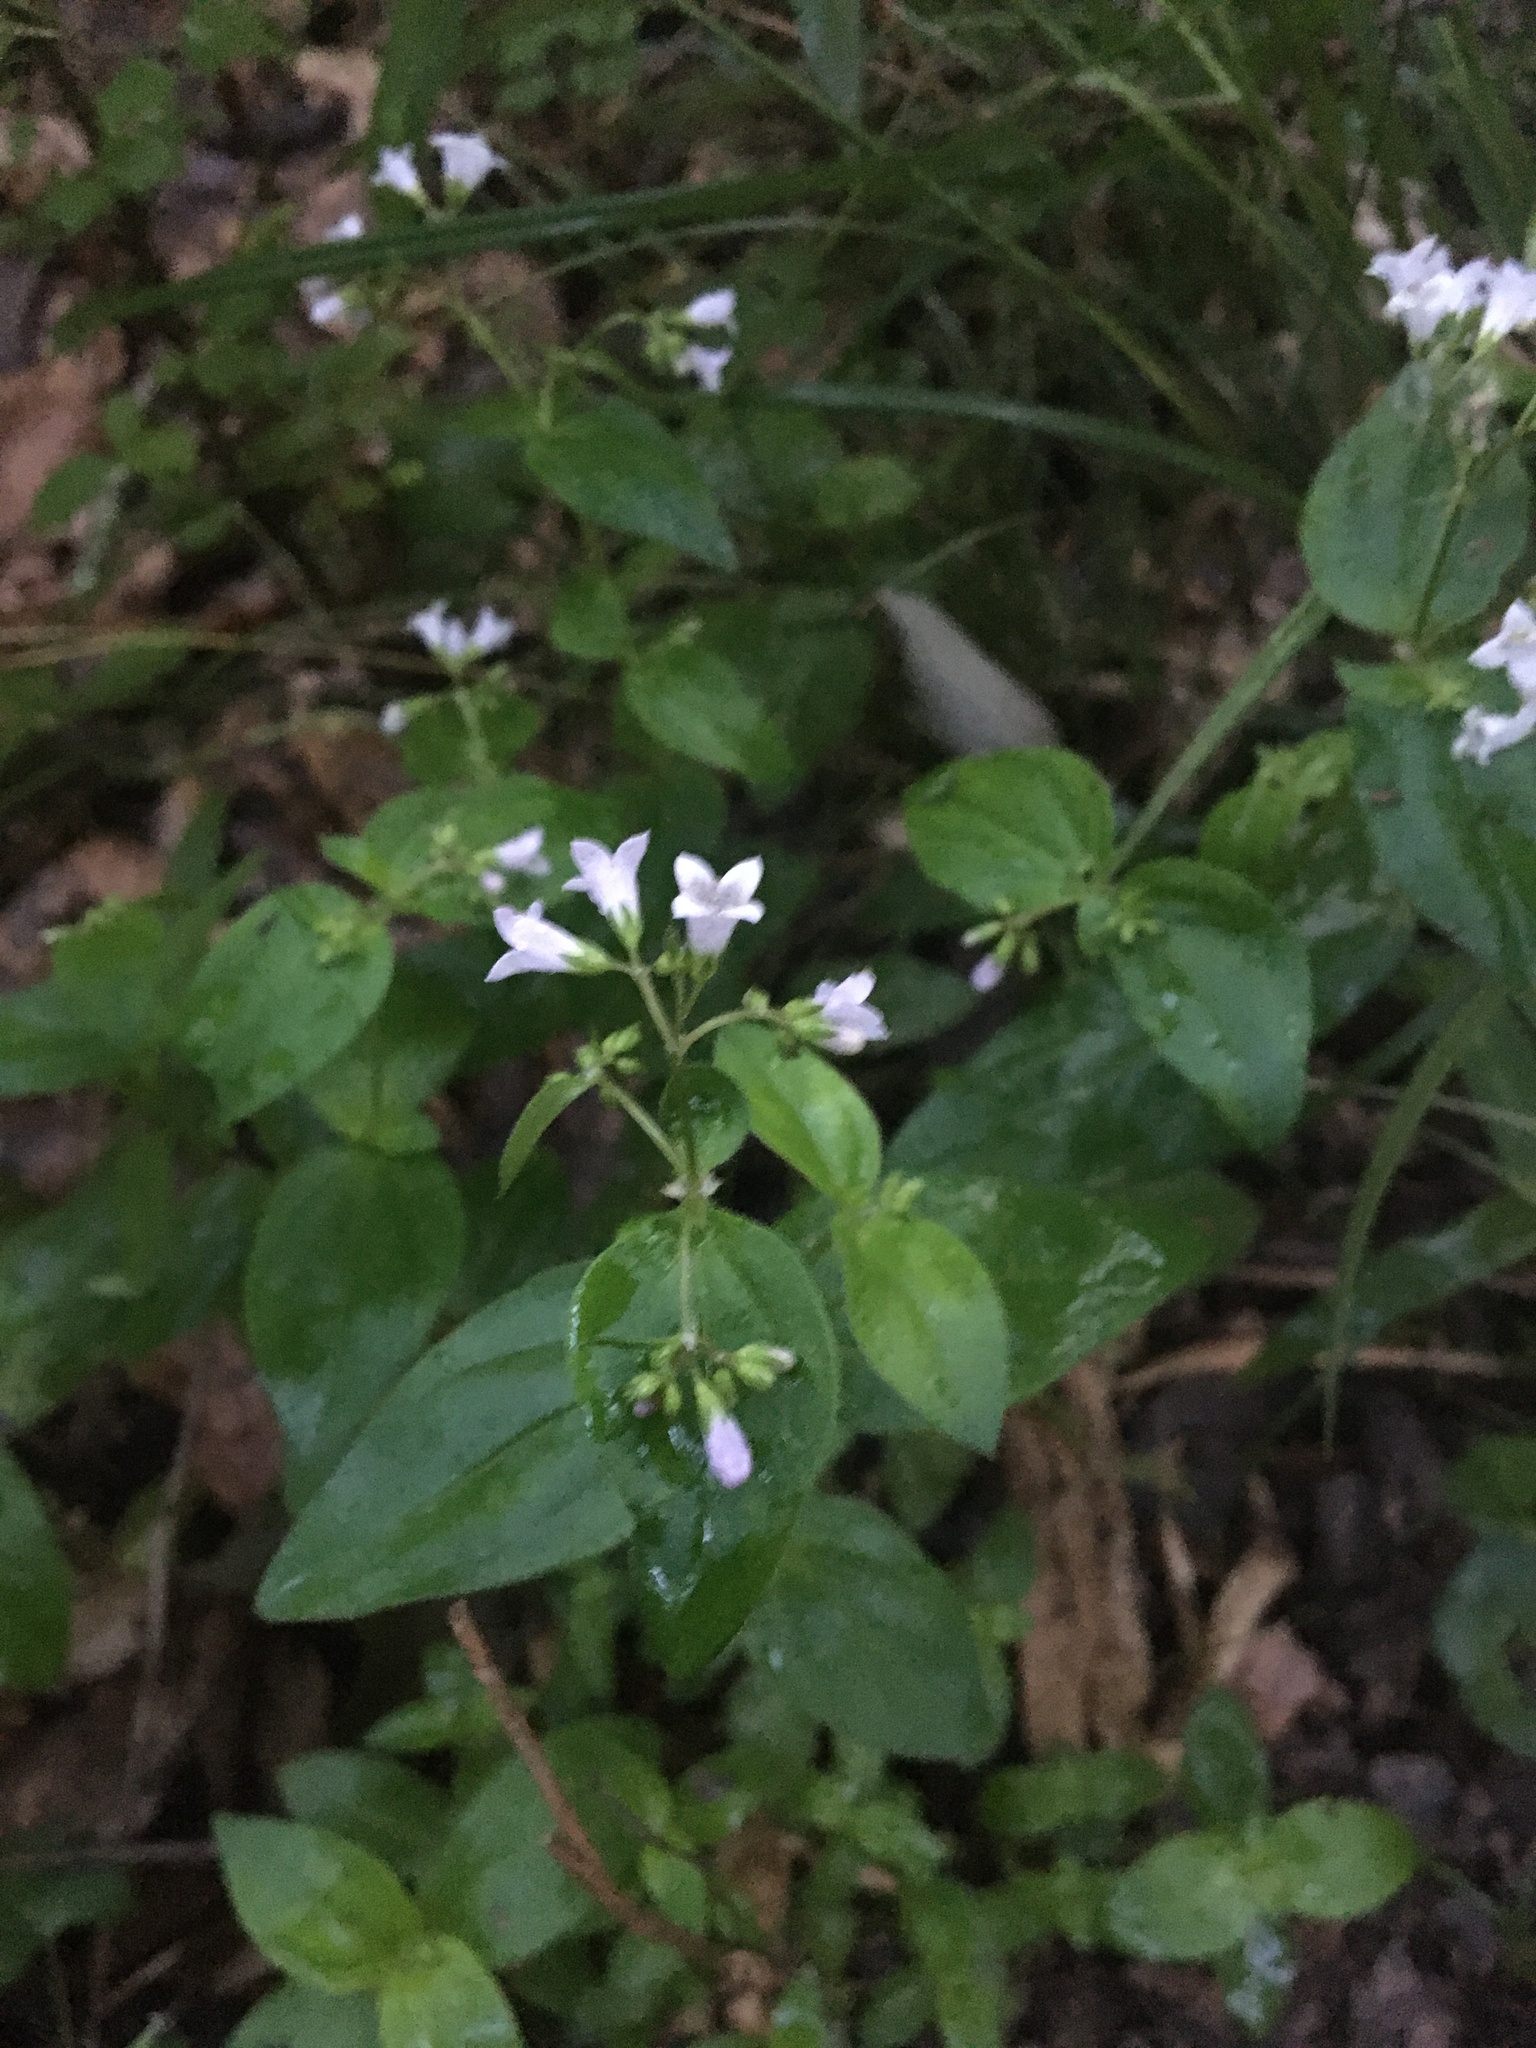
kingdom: Plantae
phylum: Tracheophyta
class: Magnoliopsida
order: Gentianales
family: Rubiaceae
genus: Houstonia
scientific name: Houstonia purpurea
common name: Summer bluet
